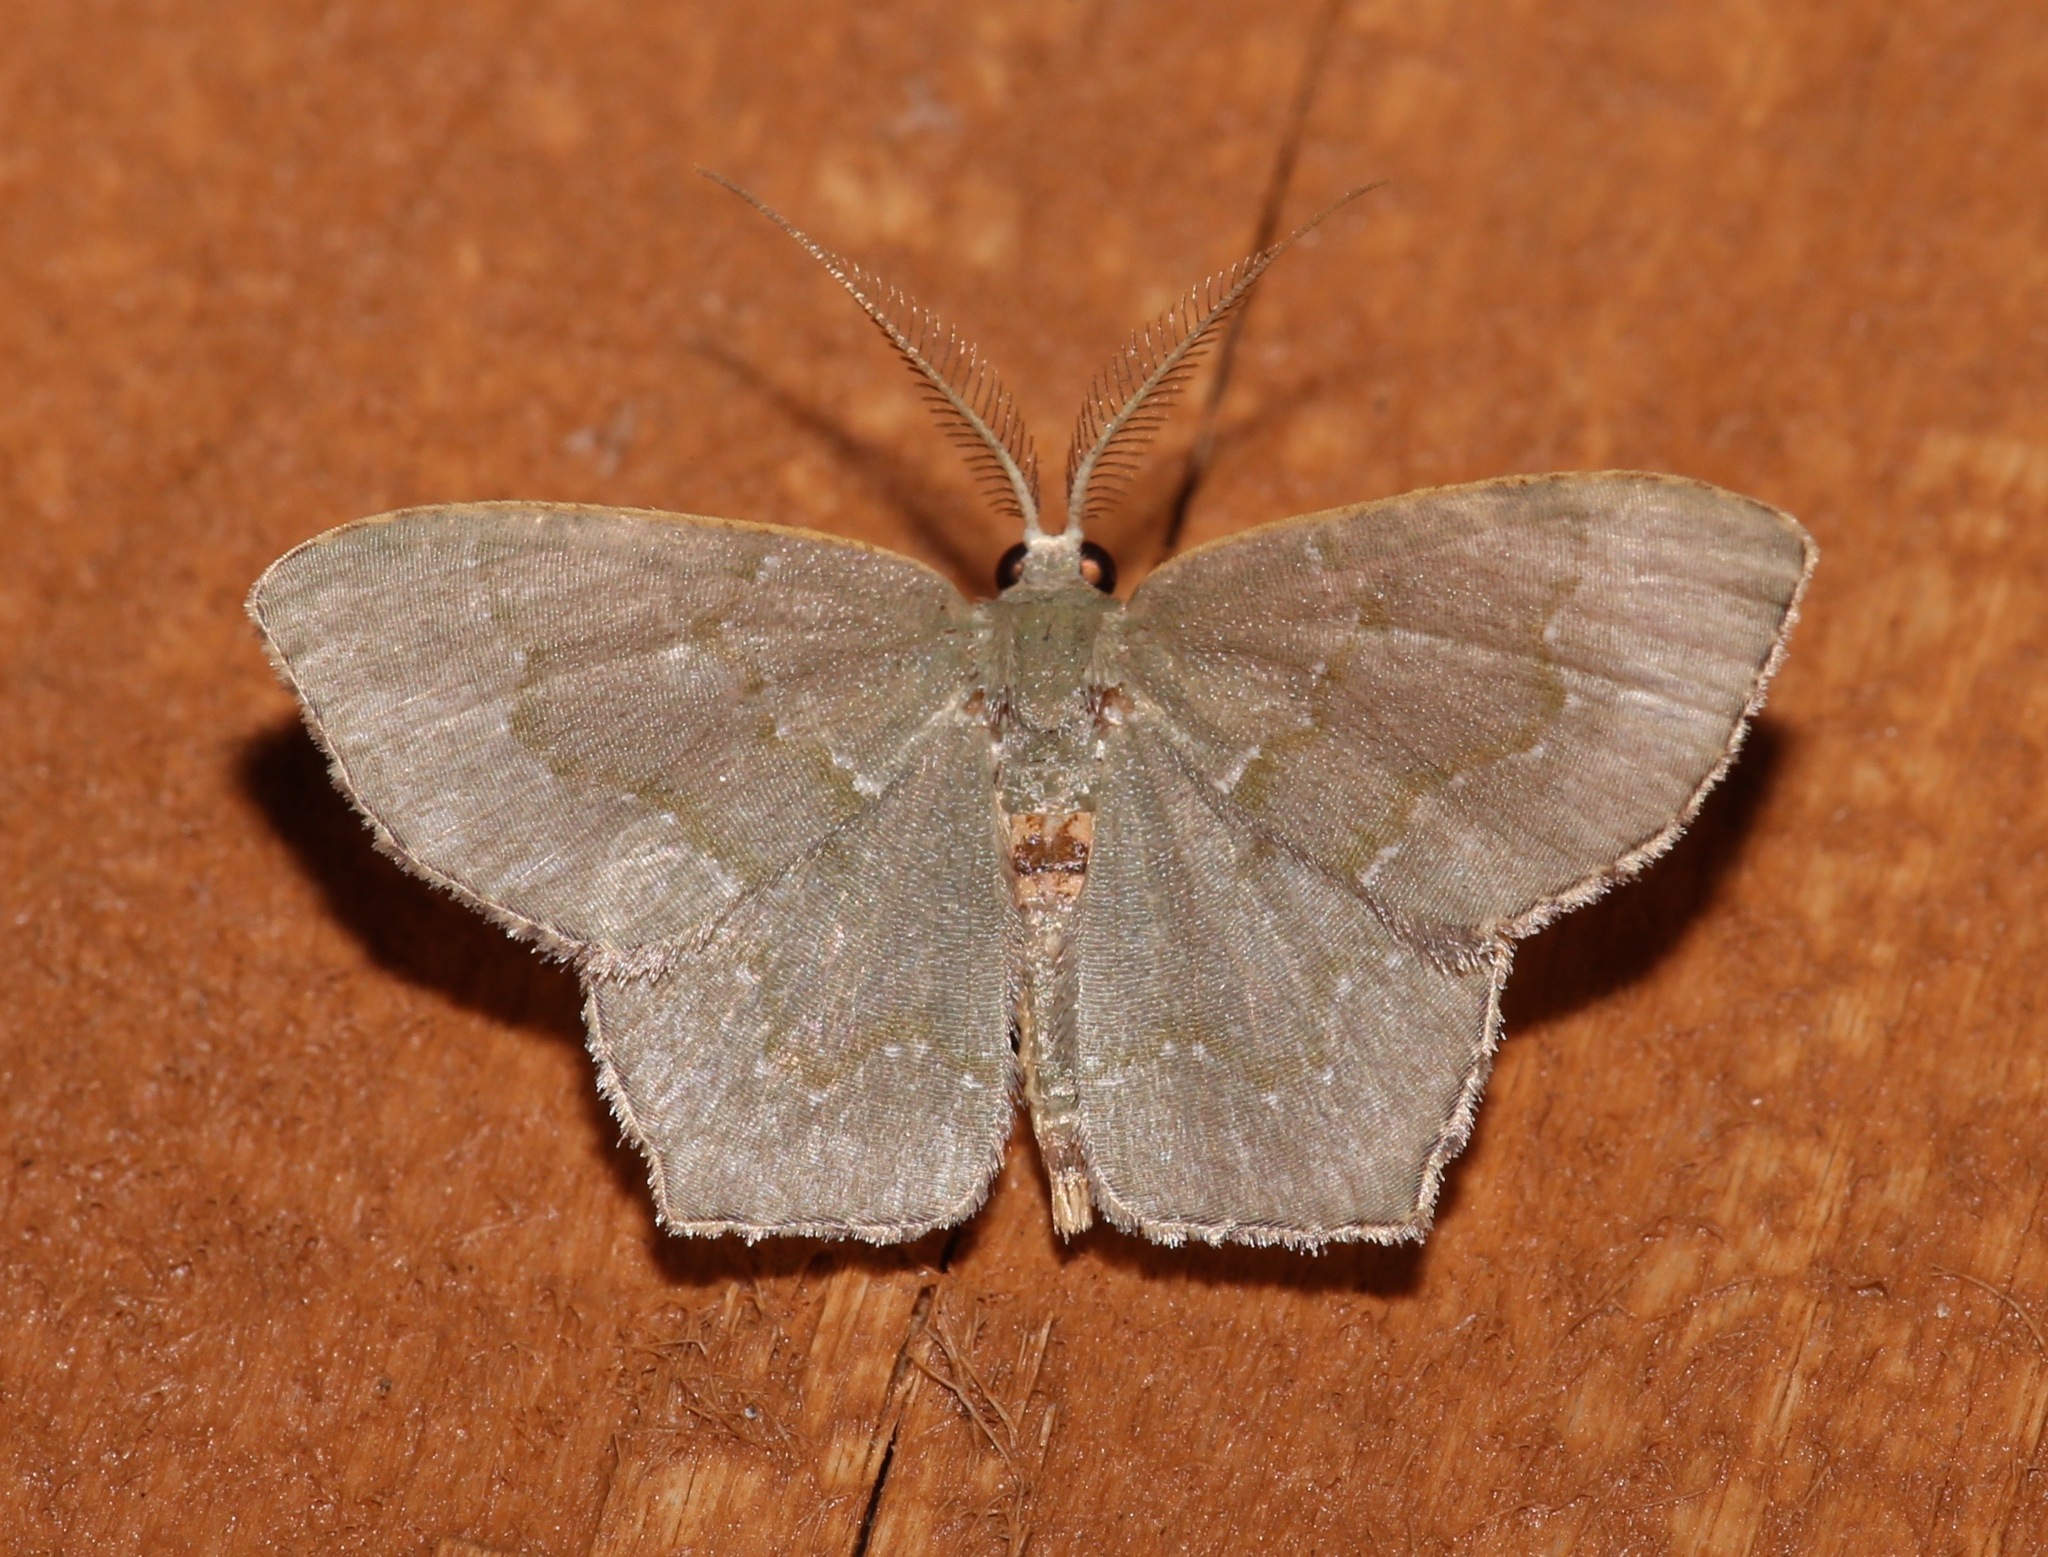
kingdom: Animalia
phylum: Arthropoda
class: Insecta
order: Lepidoptera
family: Geometridae
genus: Chloropteryx
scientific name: Chloropteryx tepperaria
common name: Angle winged emerald moth
